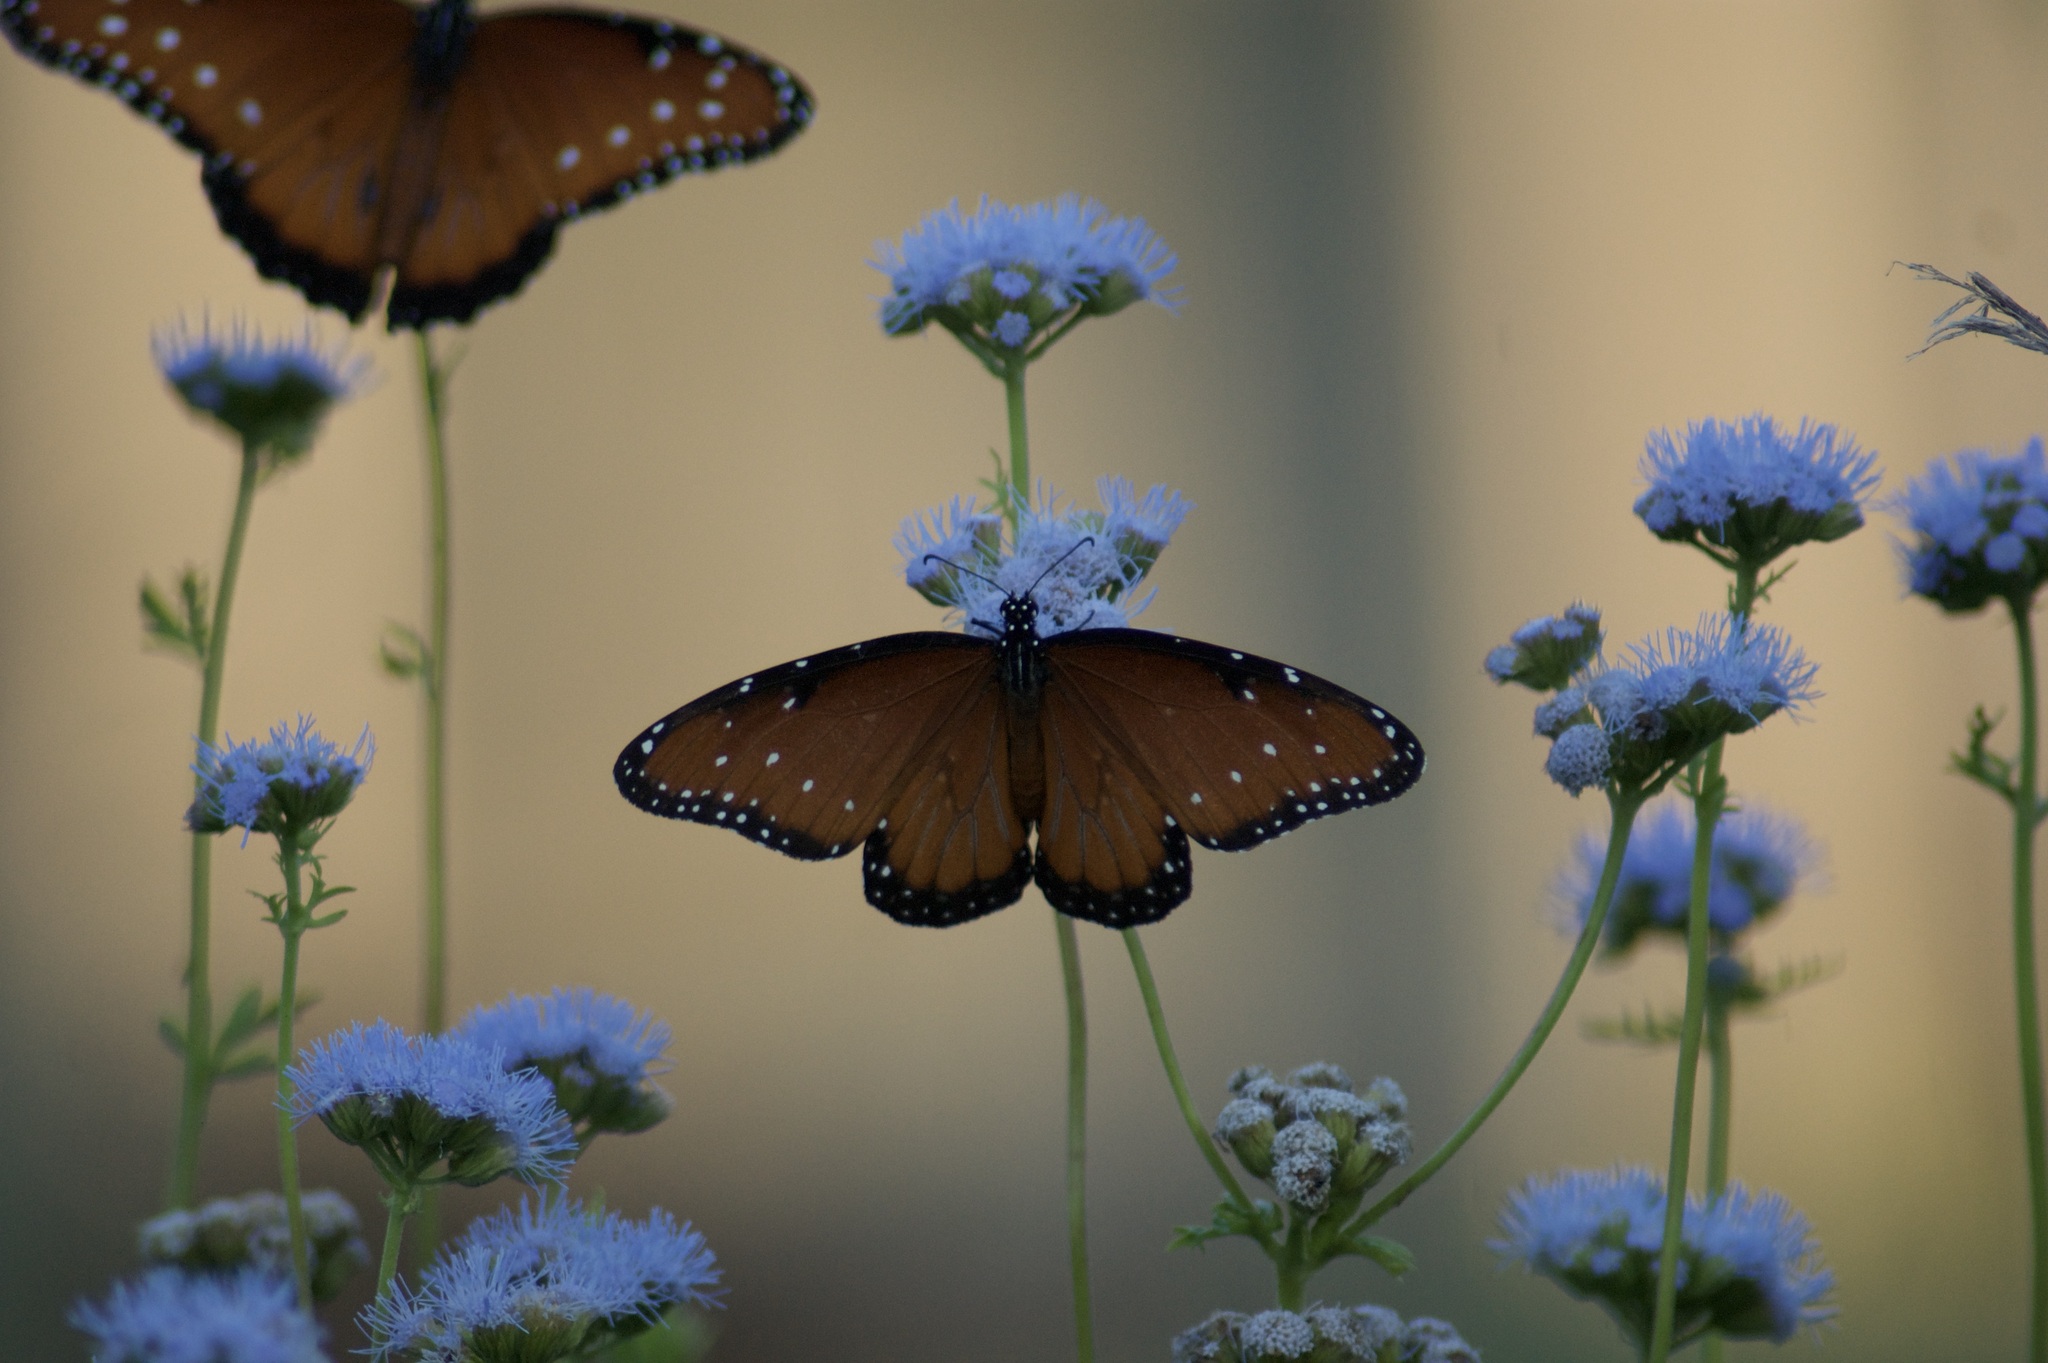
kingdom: Animalia
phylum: Arthropoda
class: Insecta
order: Lepidoptera
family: Nymphalidae
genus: Danaus
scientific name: Danaus gilippus
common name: Queen
